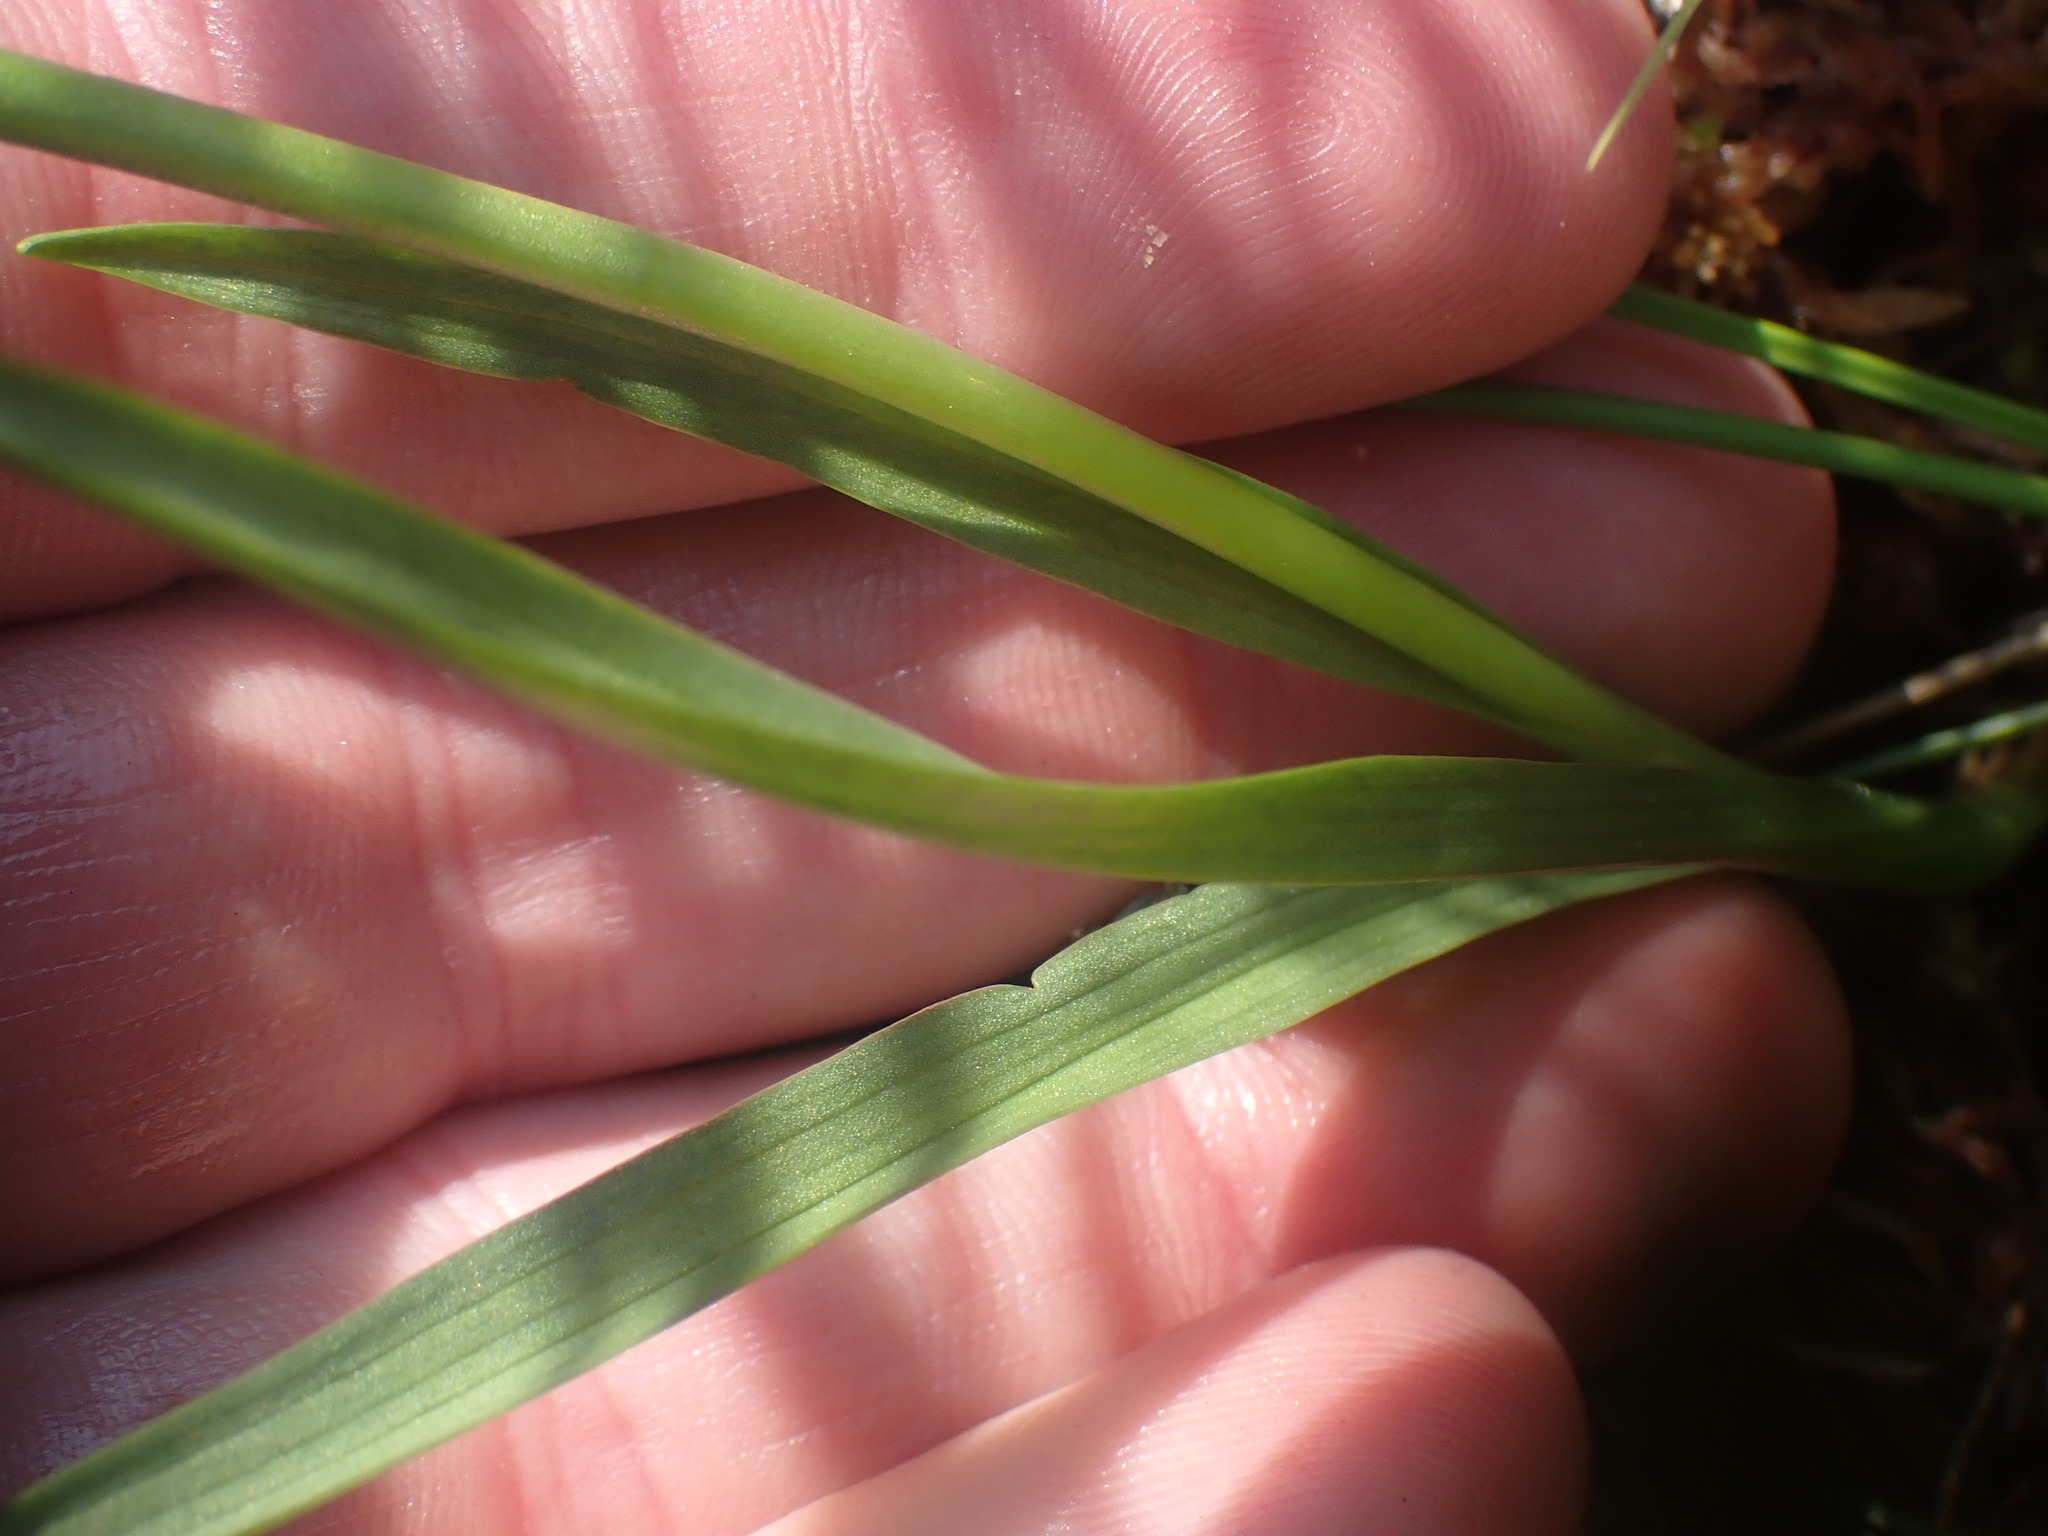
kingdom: Plantae
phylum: Tracheophyta
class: Liliopsida
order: Asparagales
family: Orchidaceae
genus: Spiranthes
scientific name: Spiranthes romanzoffiana
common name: Irish lady's-tresses
